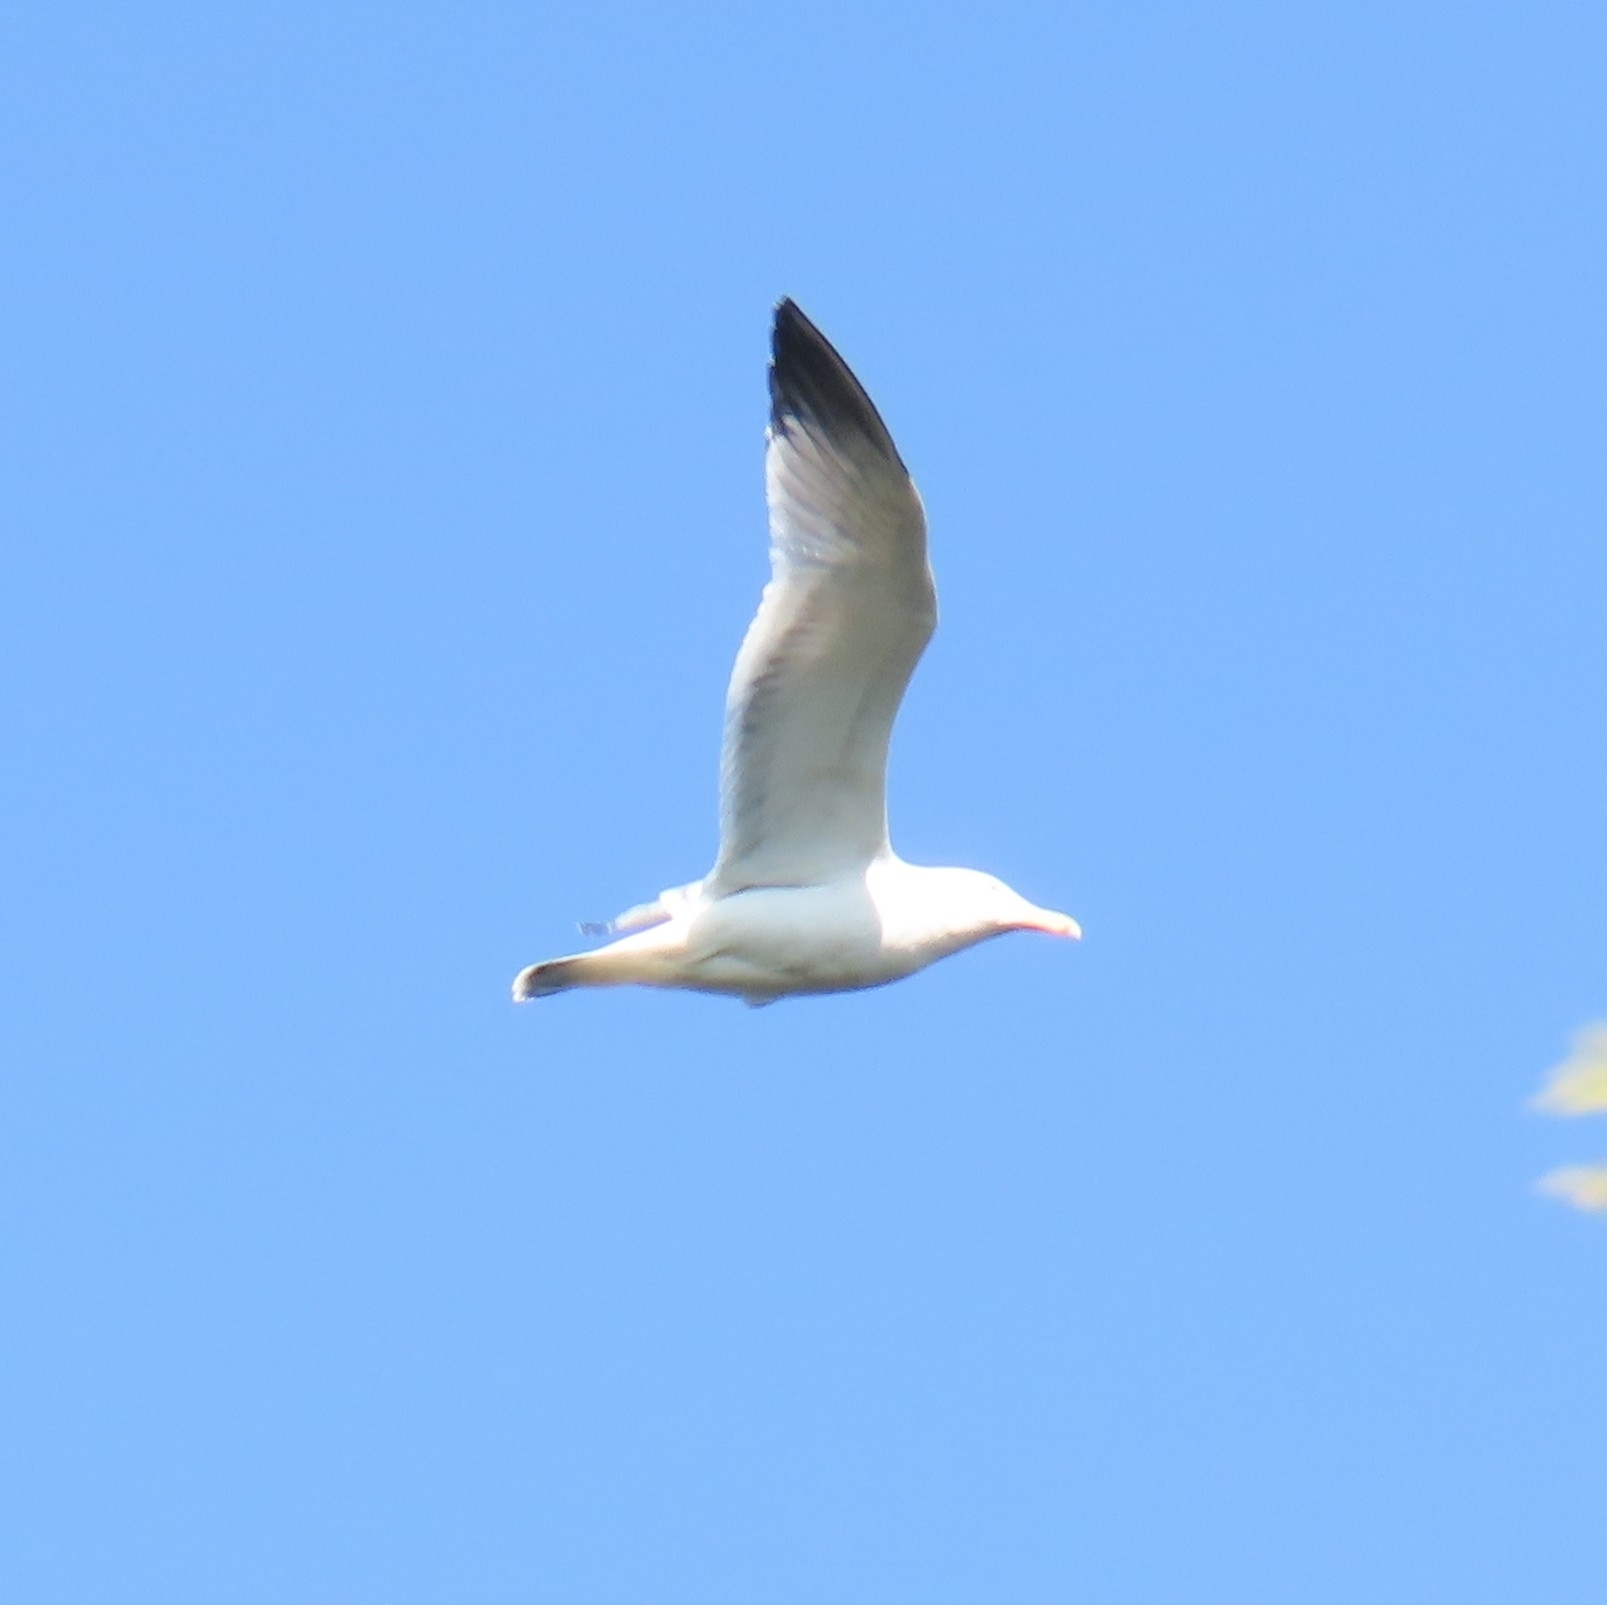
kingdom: Animalia
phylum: Chordata
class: Aves
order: Charadriiformes
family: Laridae
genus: Larus
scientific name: Larus argentatus
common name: Herring gull
